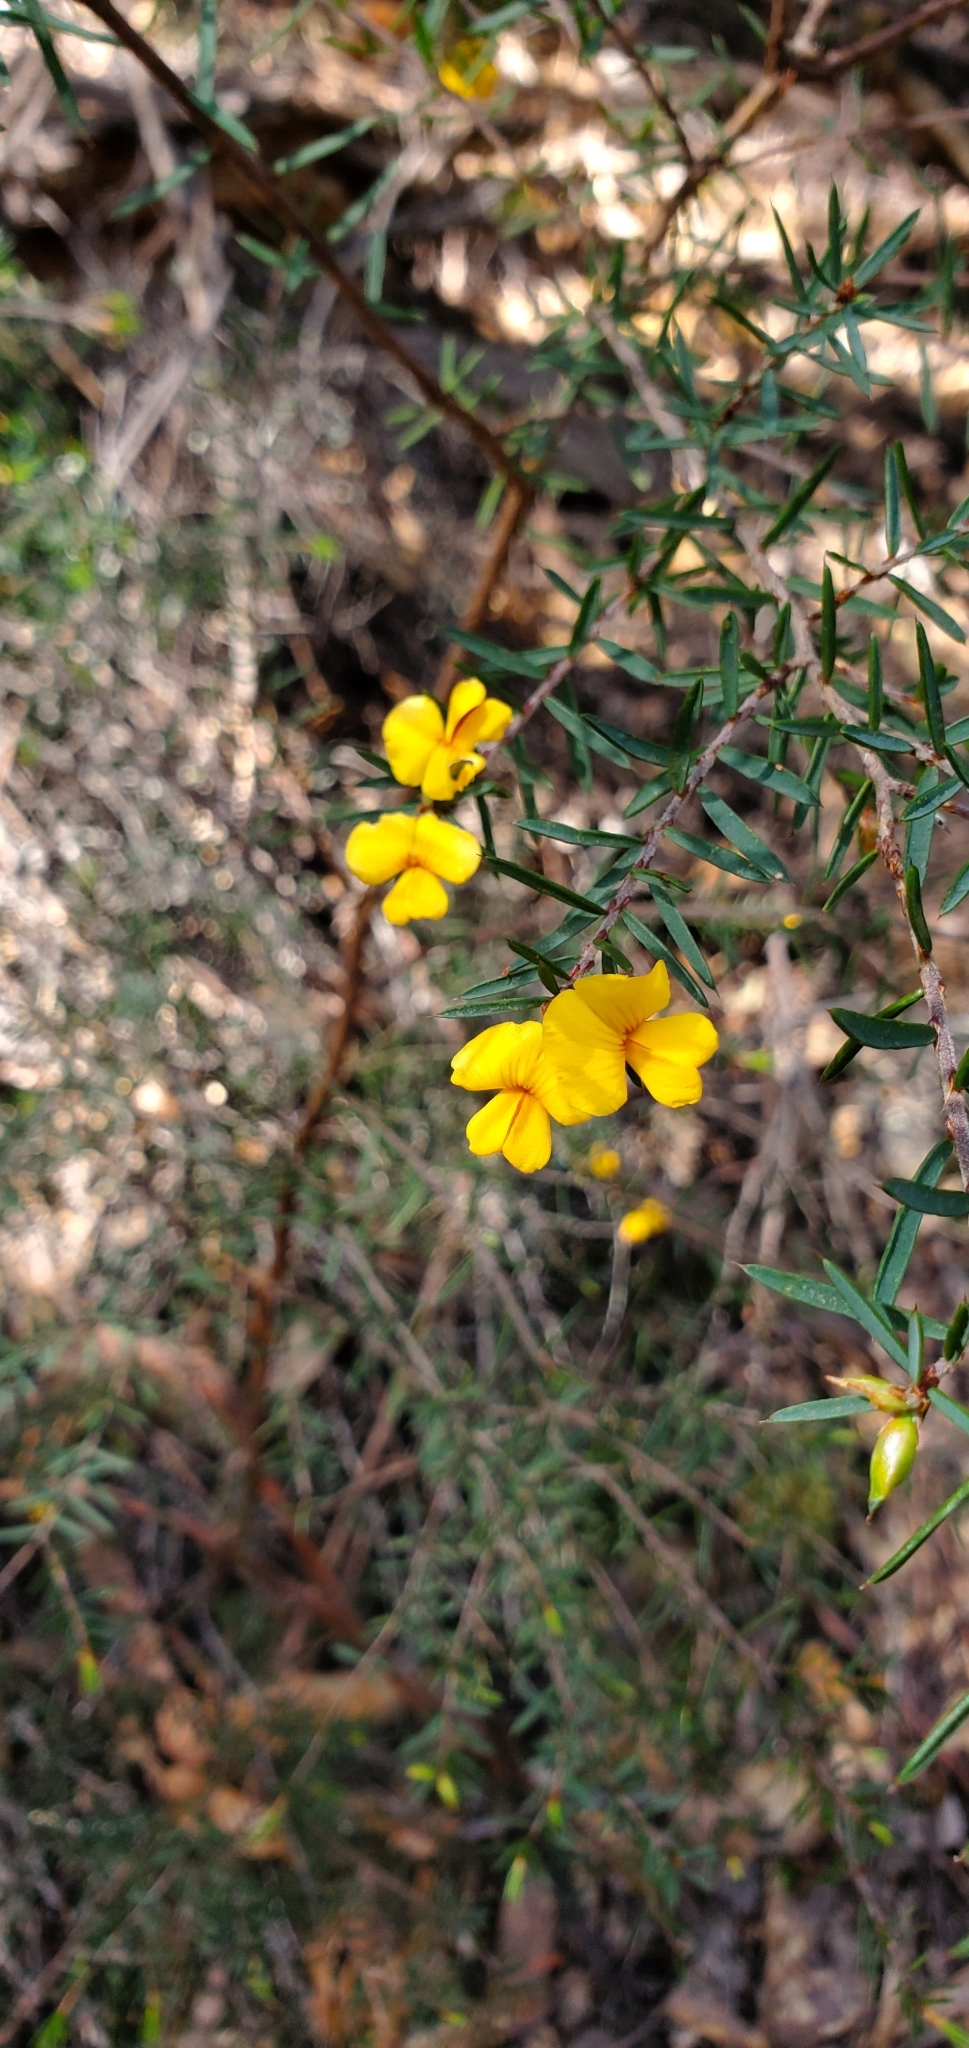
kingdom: Plantae
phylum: Tracheophyta
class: Magnoliopsida
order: Fabales
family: Fabaceae
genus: Pultenaea
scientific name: Pultenaea juniperina
